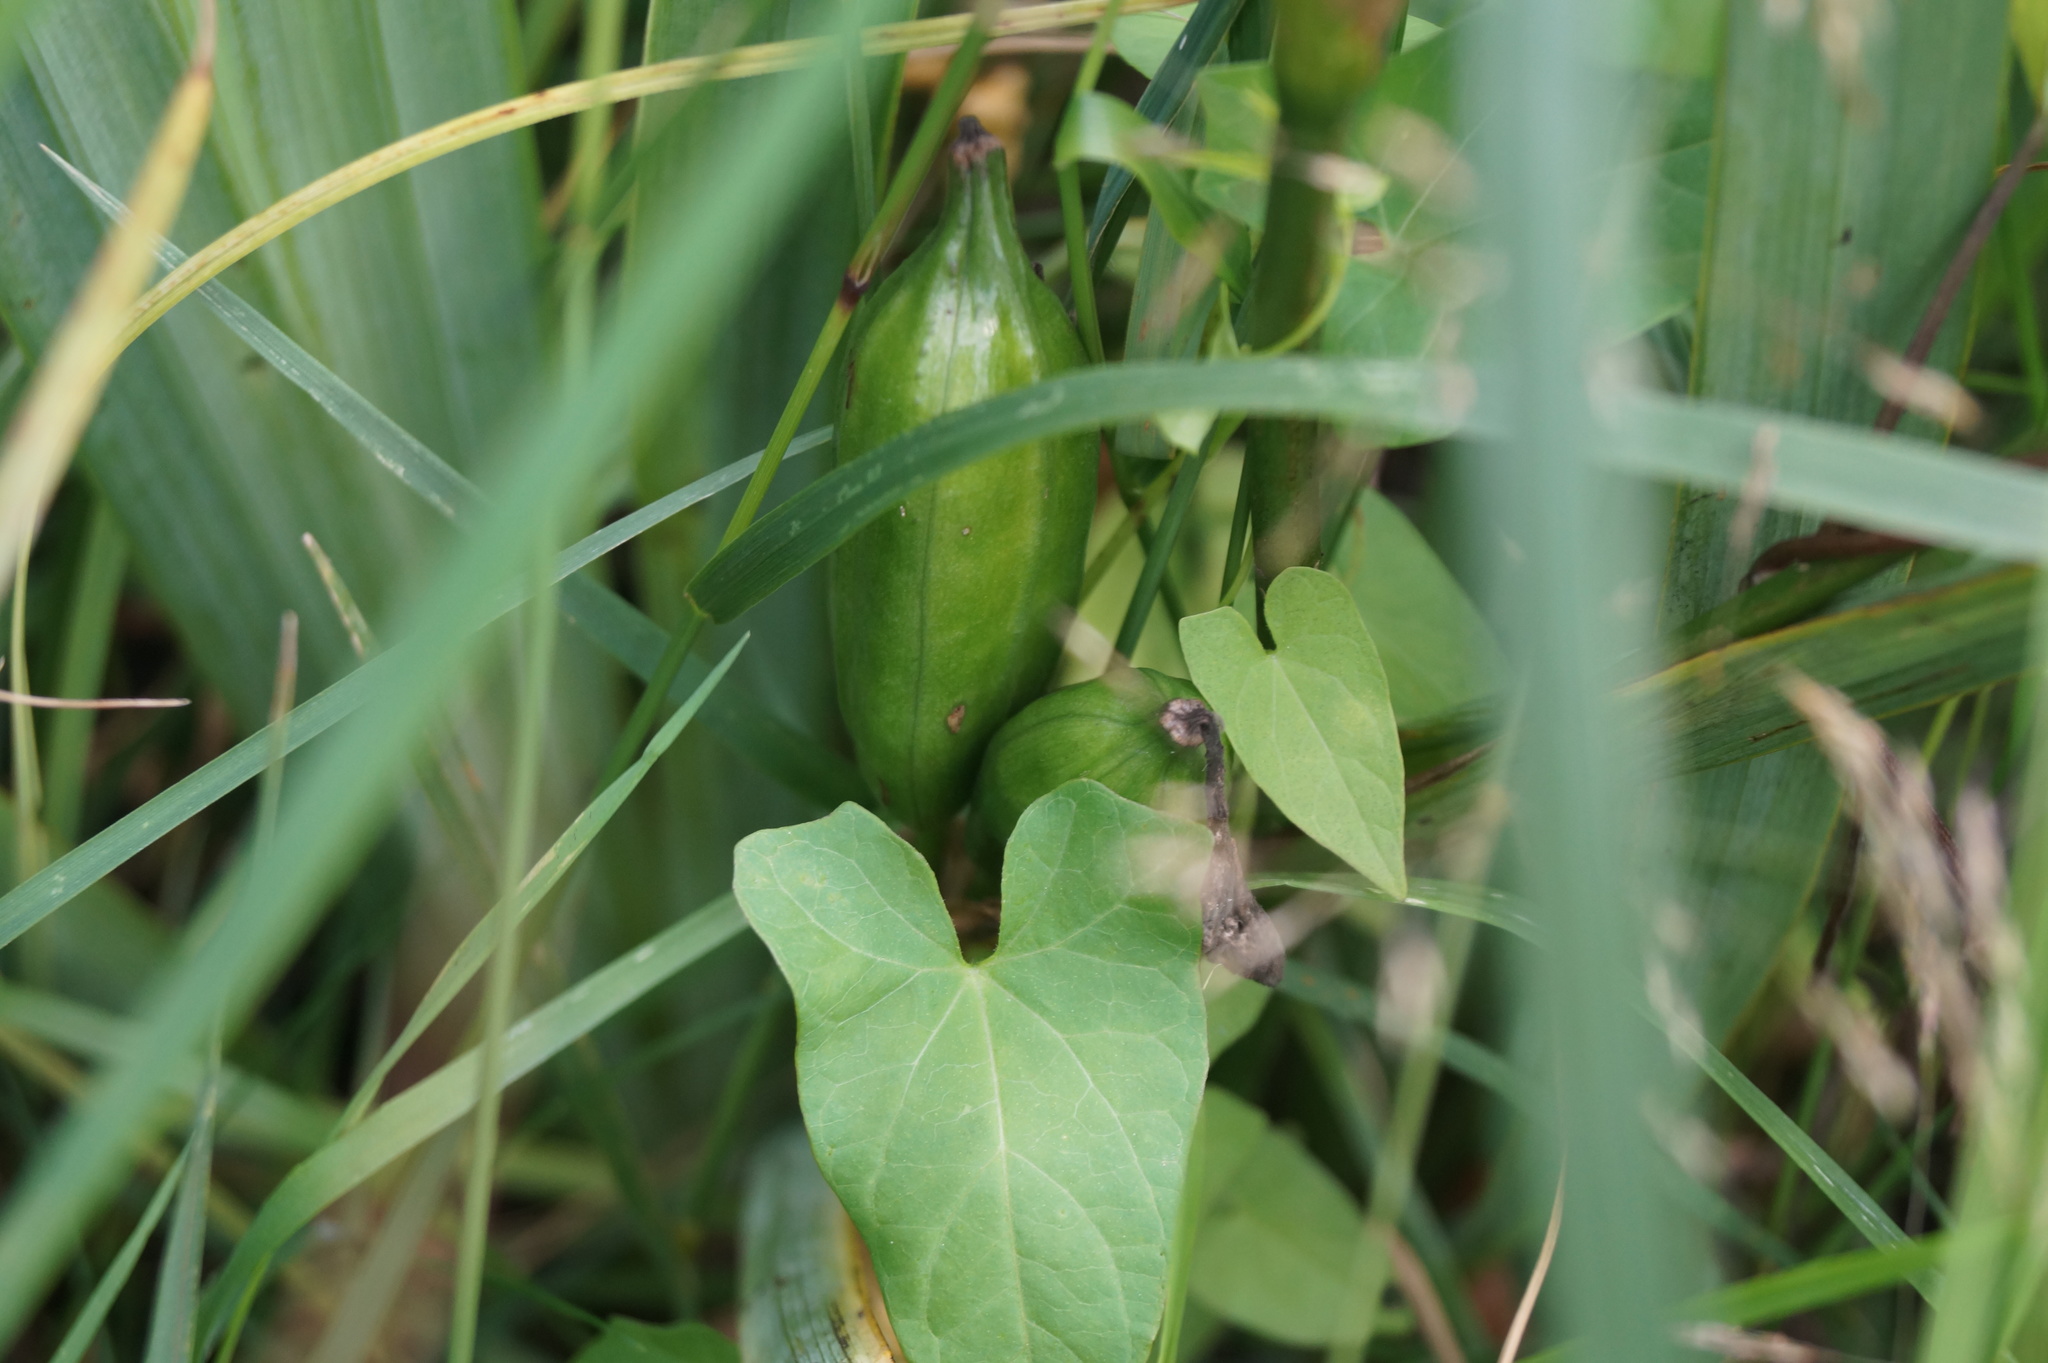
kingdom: Plantae
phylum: Tracheophyta
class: Liliopsida
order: Asparagales
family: Iridaceae
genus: Iris
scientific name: Iris pseudacorus
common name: Yellow flag
